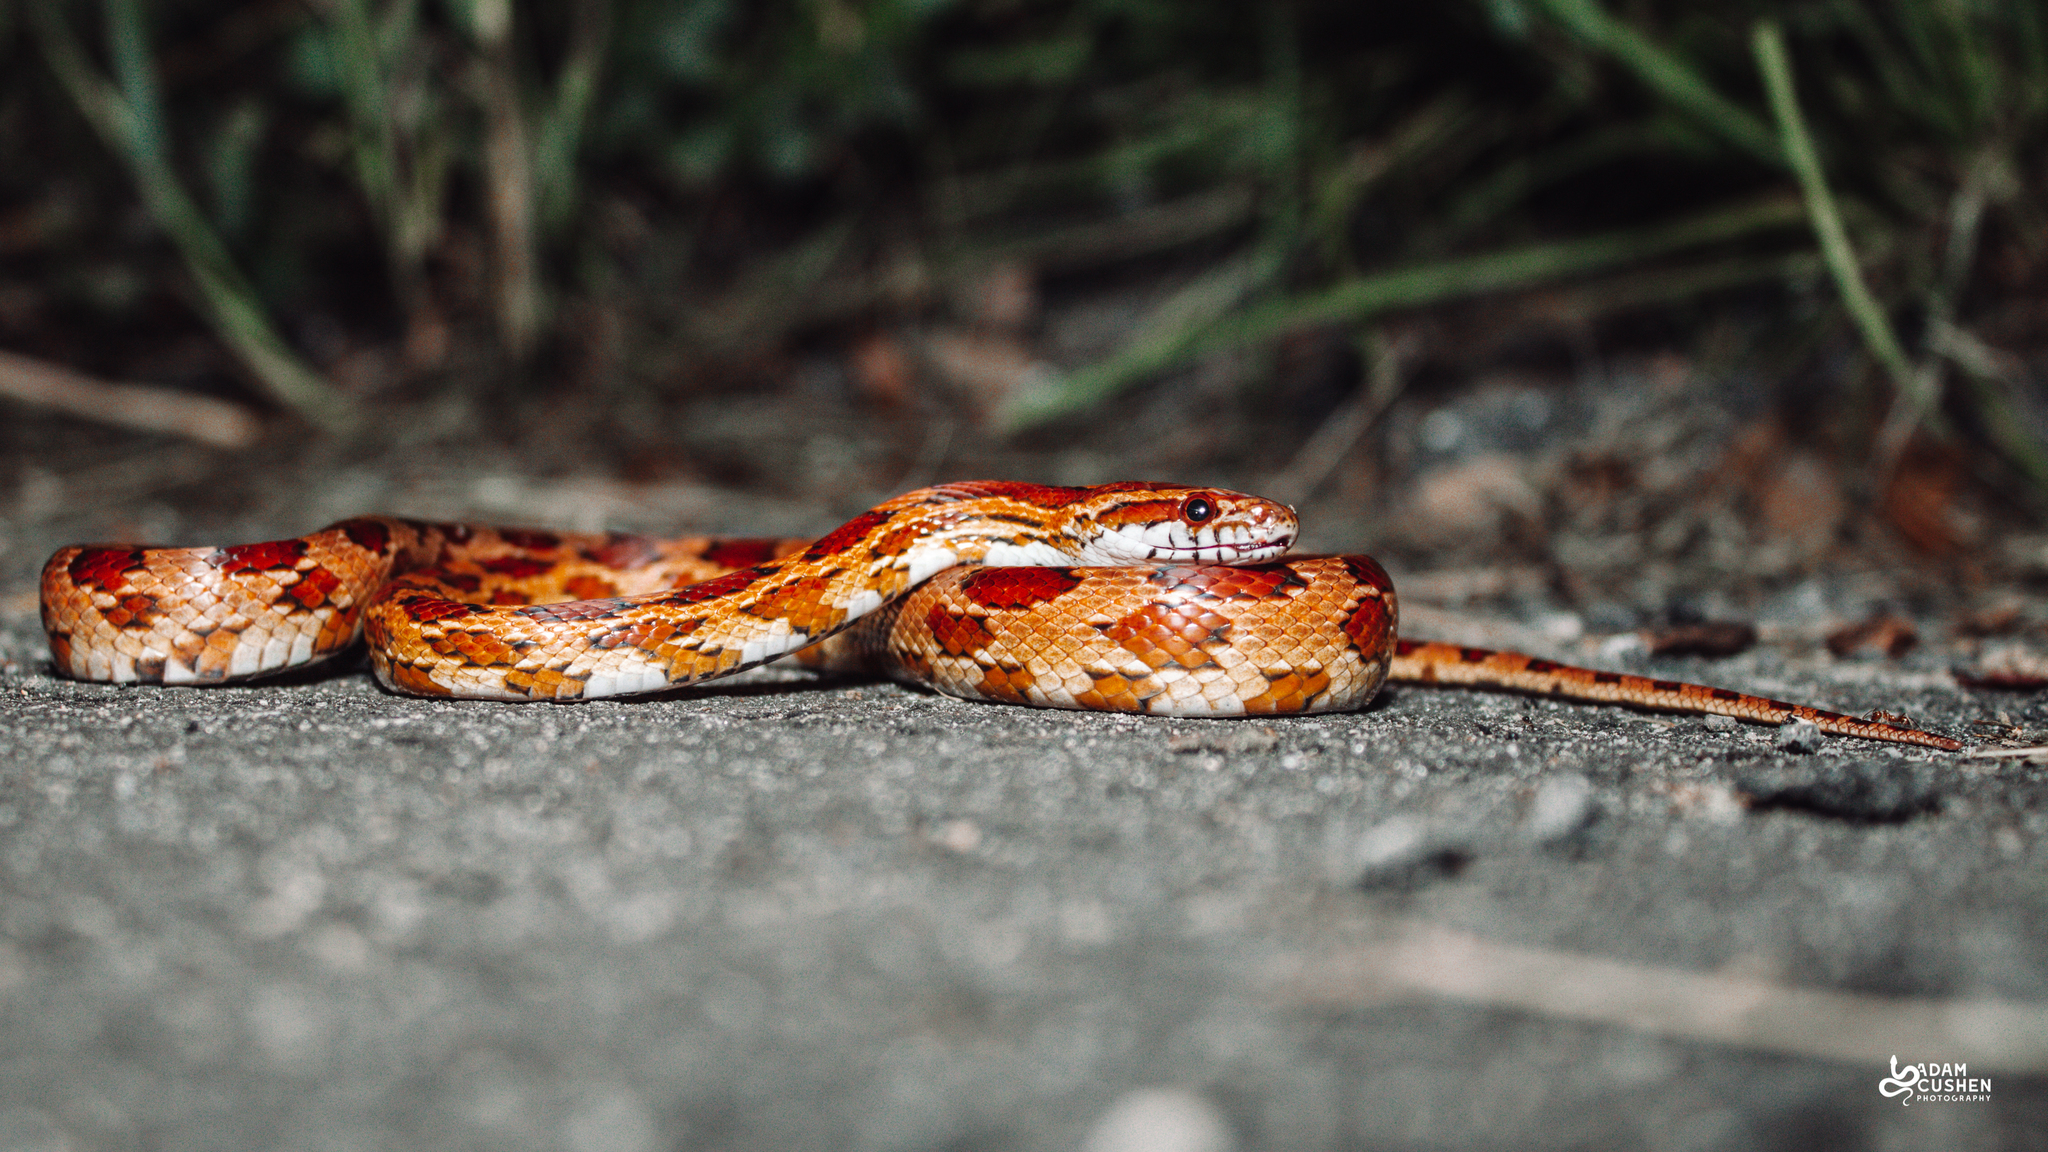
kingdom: Animalia
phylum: Chordata
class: Squamata
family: Colubridae
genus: Pantherophis
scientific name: Pantherophis guttatus
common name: Red cornsnake
